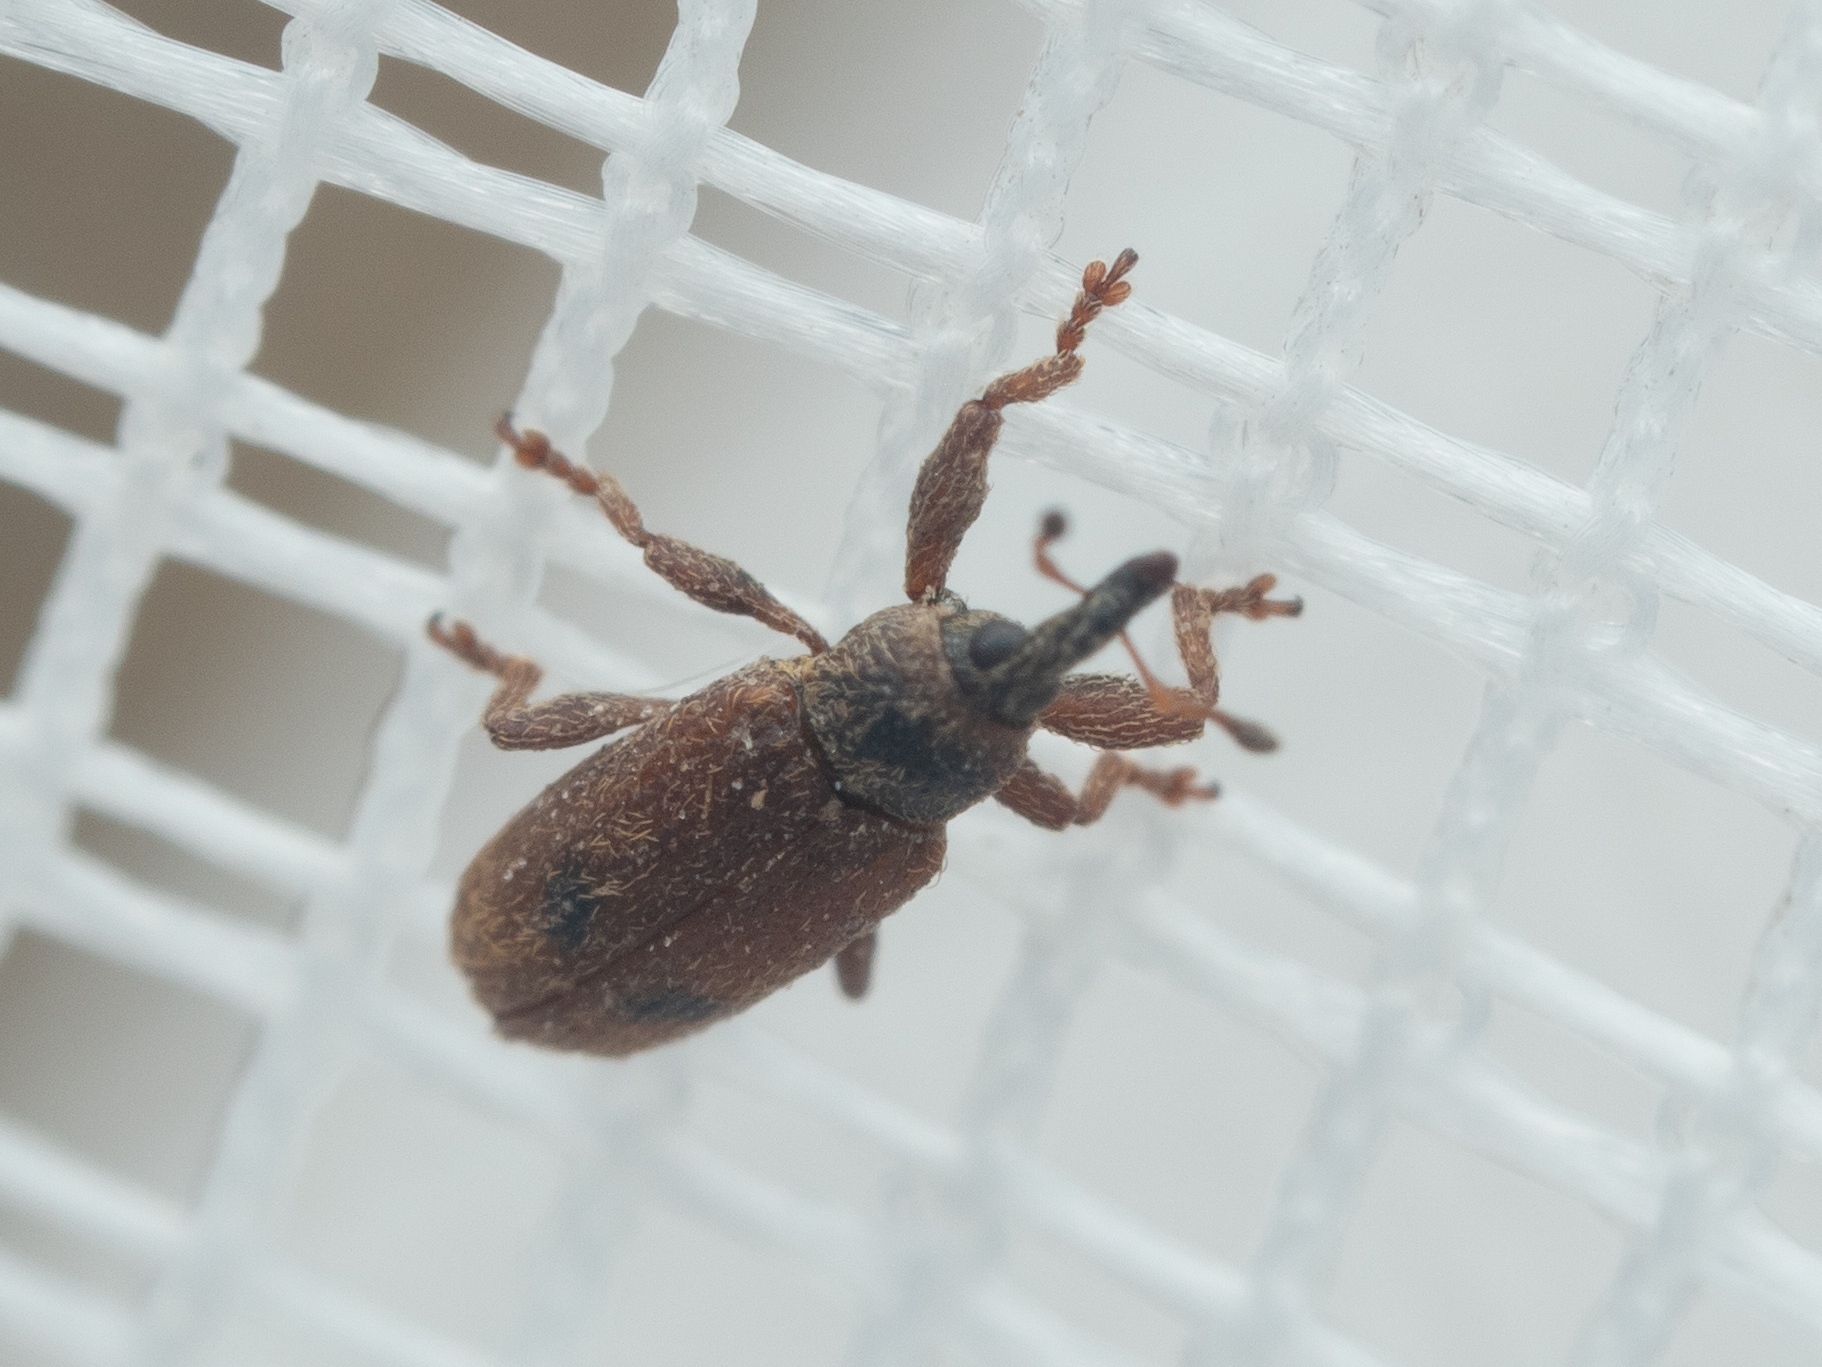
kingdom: Animalia
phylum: Arthropoda
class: Insecta
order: Coleoptera
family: Curculionidae
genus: Bradybatus
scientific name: Bradybatus creutzeri
